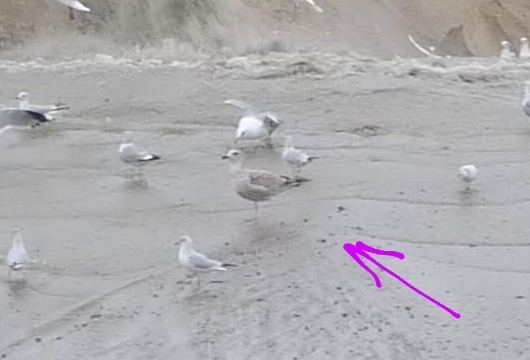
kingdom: Animalia
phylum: Chordata
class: Aves
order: Charadriiformes
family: Laridae
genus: Larus
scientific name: Larus argentatus
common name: Herring gull
